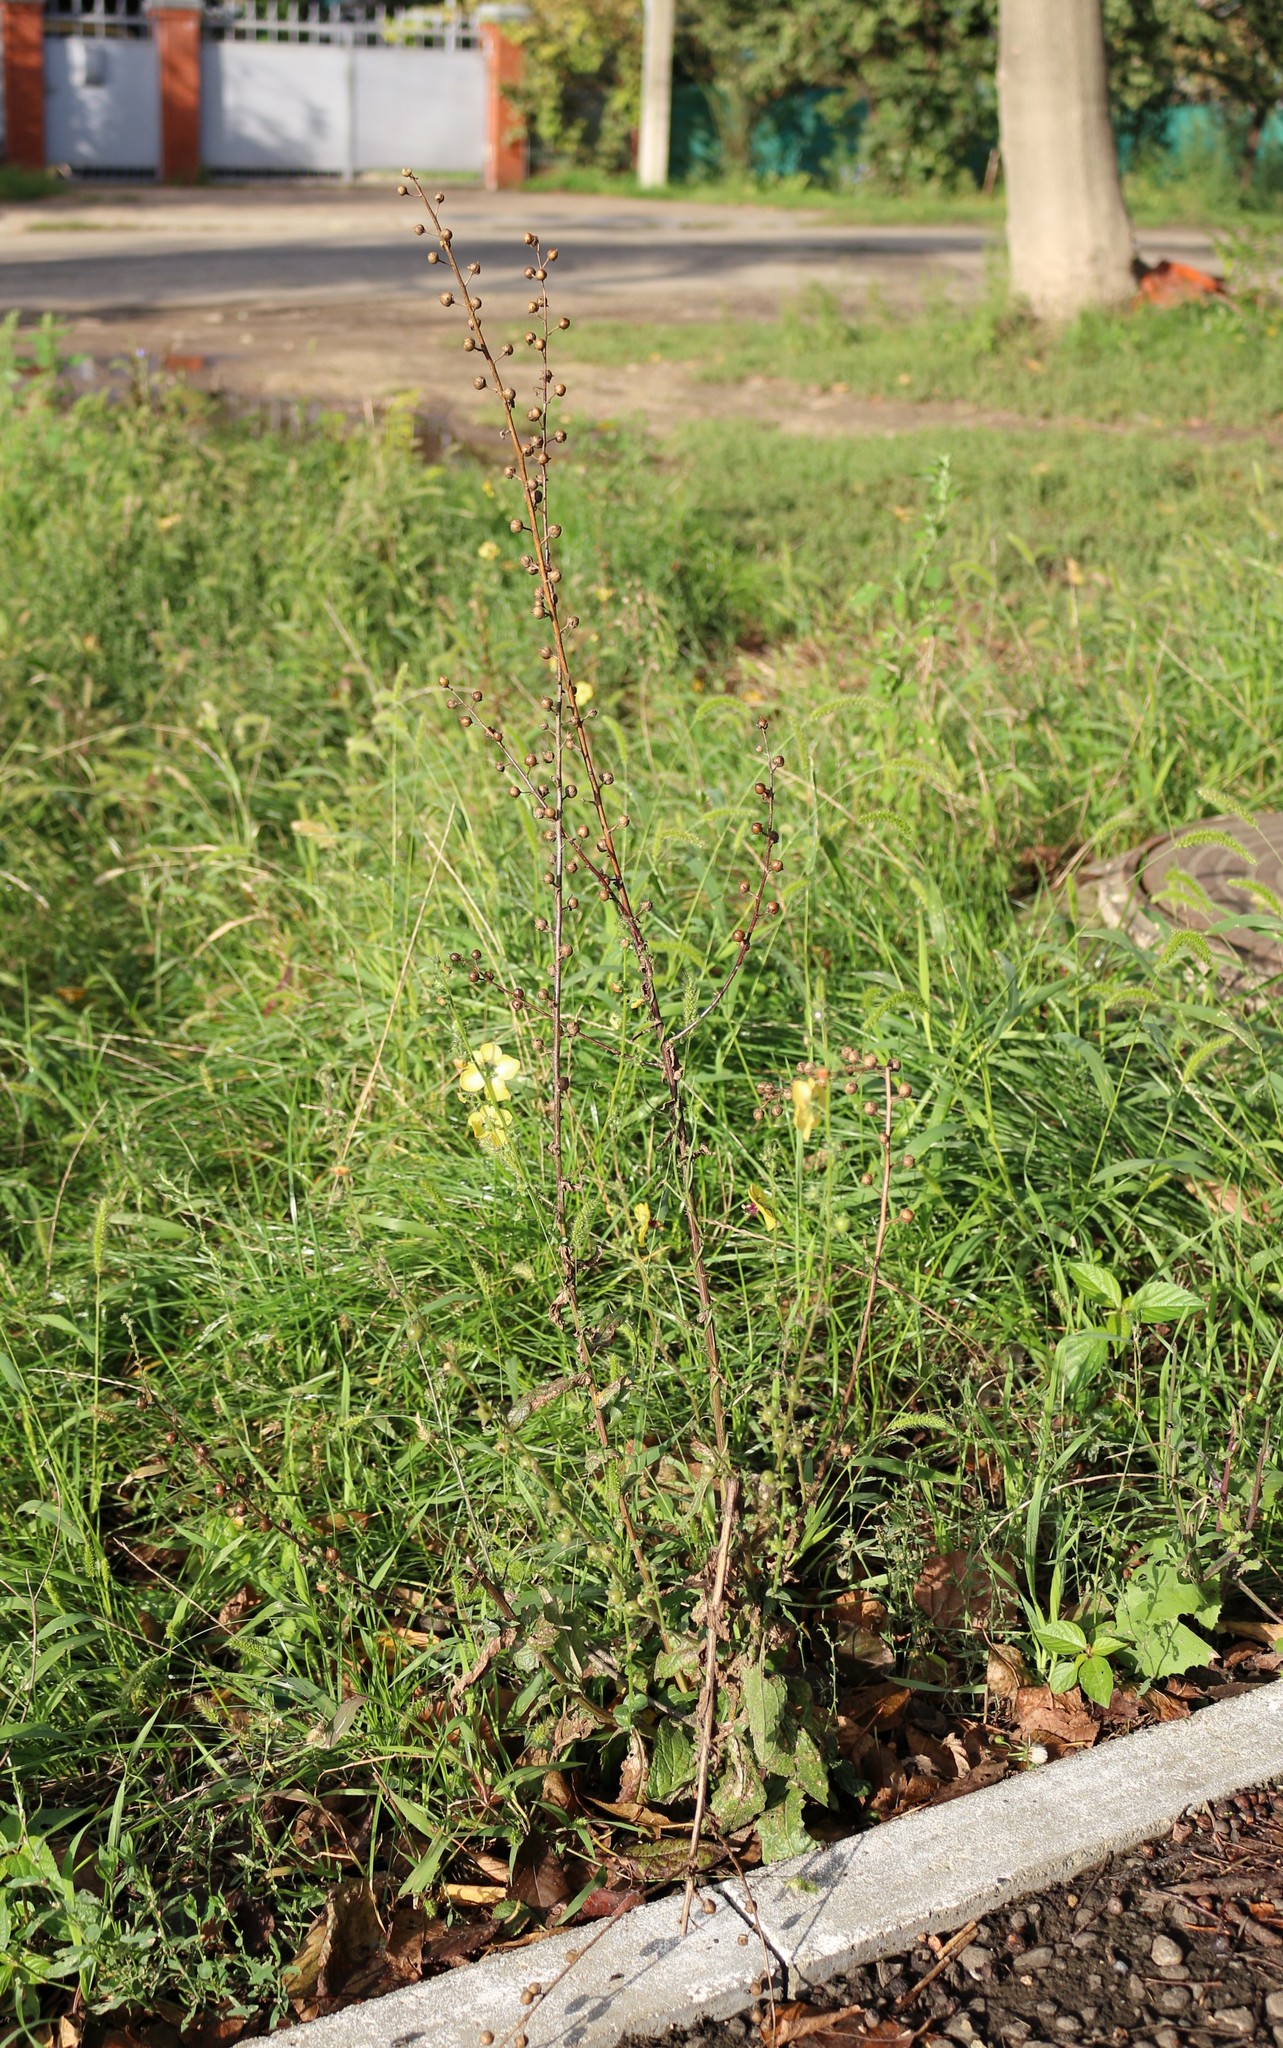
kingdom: Plantae
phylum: Tracheophyta
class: Magnoliopsida
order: Lamiales
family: Scrophulariaceae
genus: Verbascum
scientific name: Verbascum blattaria
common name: Moth mullein
